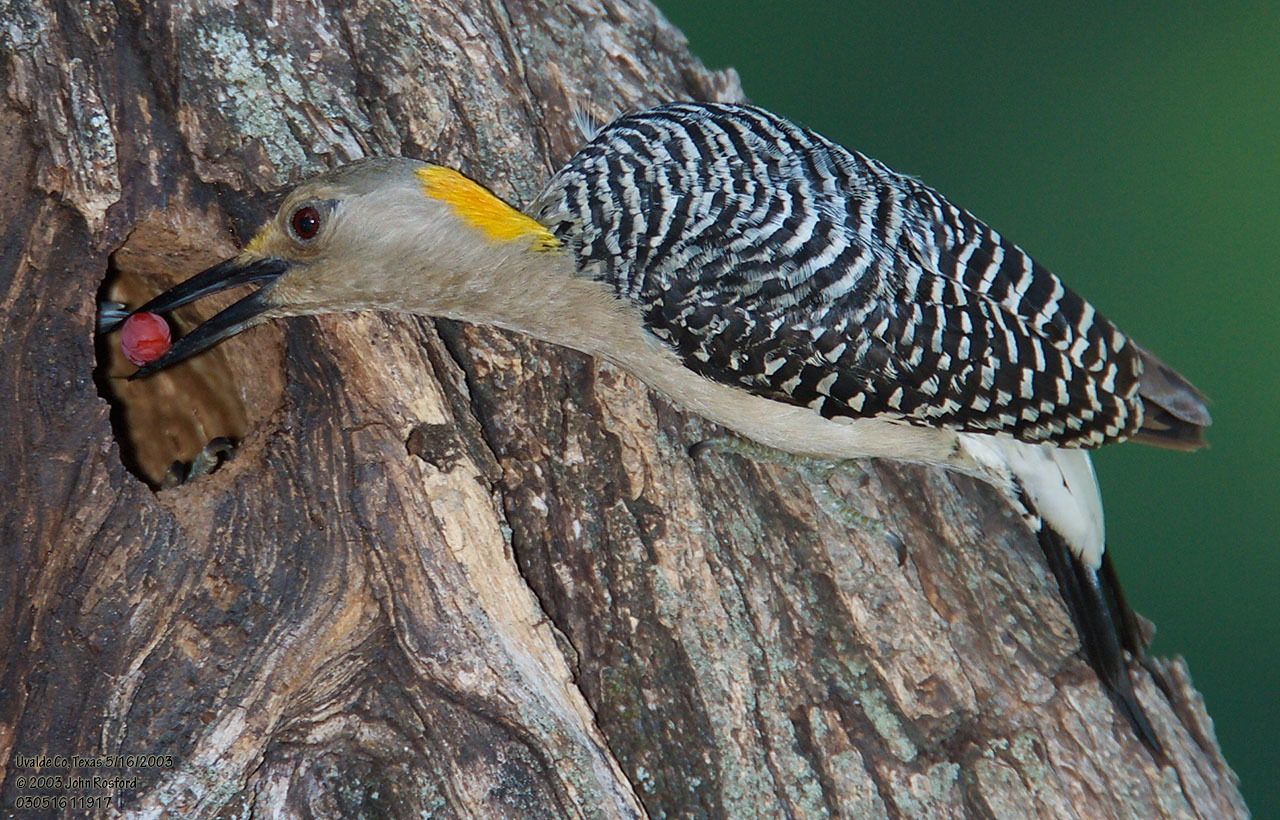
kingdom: Animalia
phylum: Chordata
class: Aves
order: Piciformes
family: Picidae
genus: Melanerpes
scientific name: Melanerpes aurifrons
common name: Golden-fronted woodpecker
